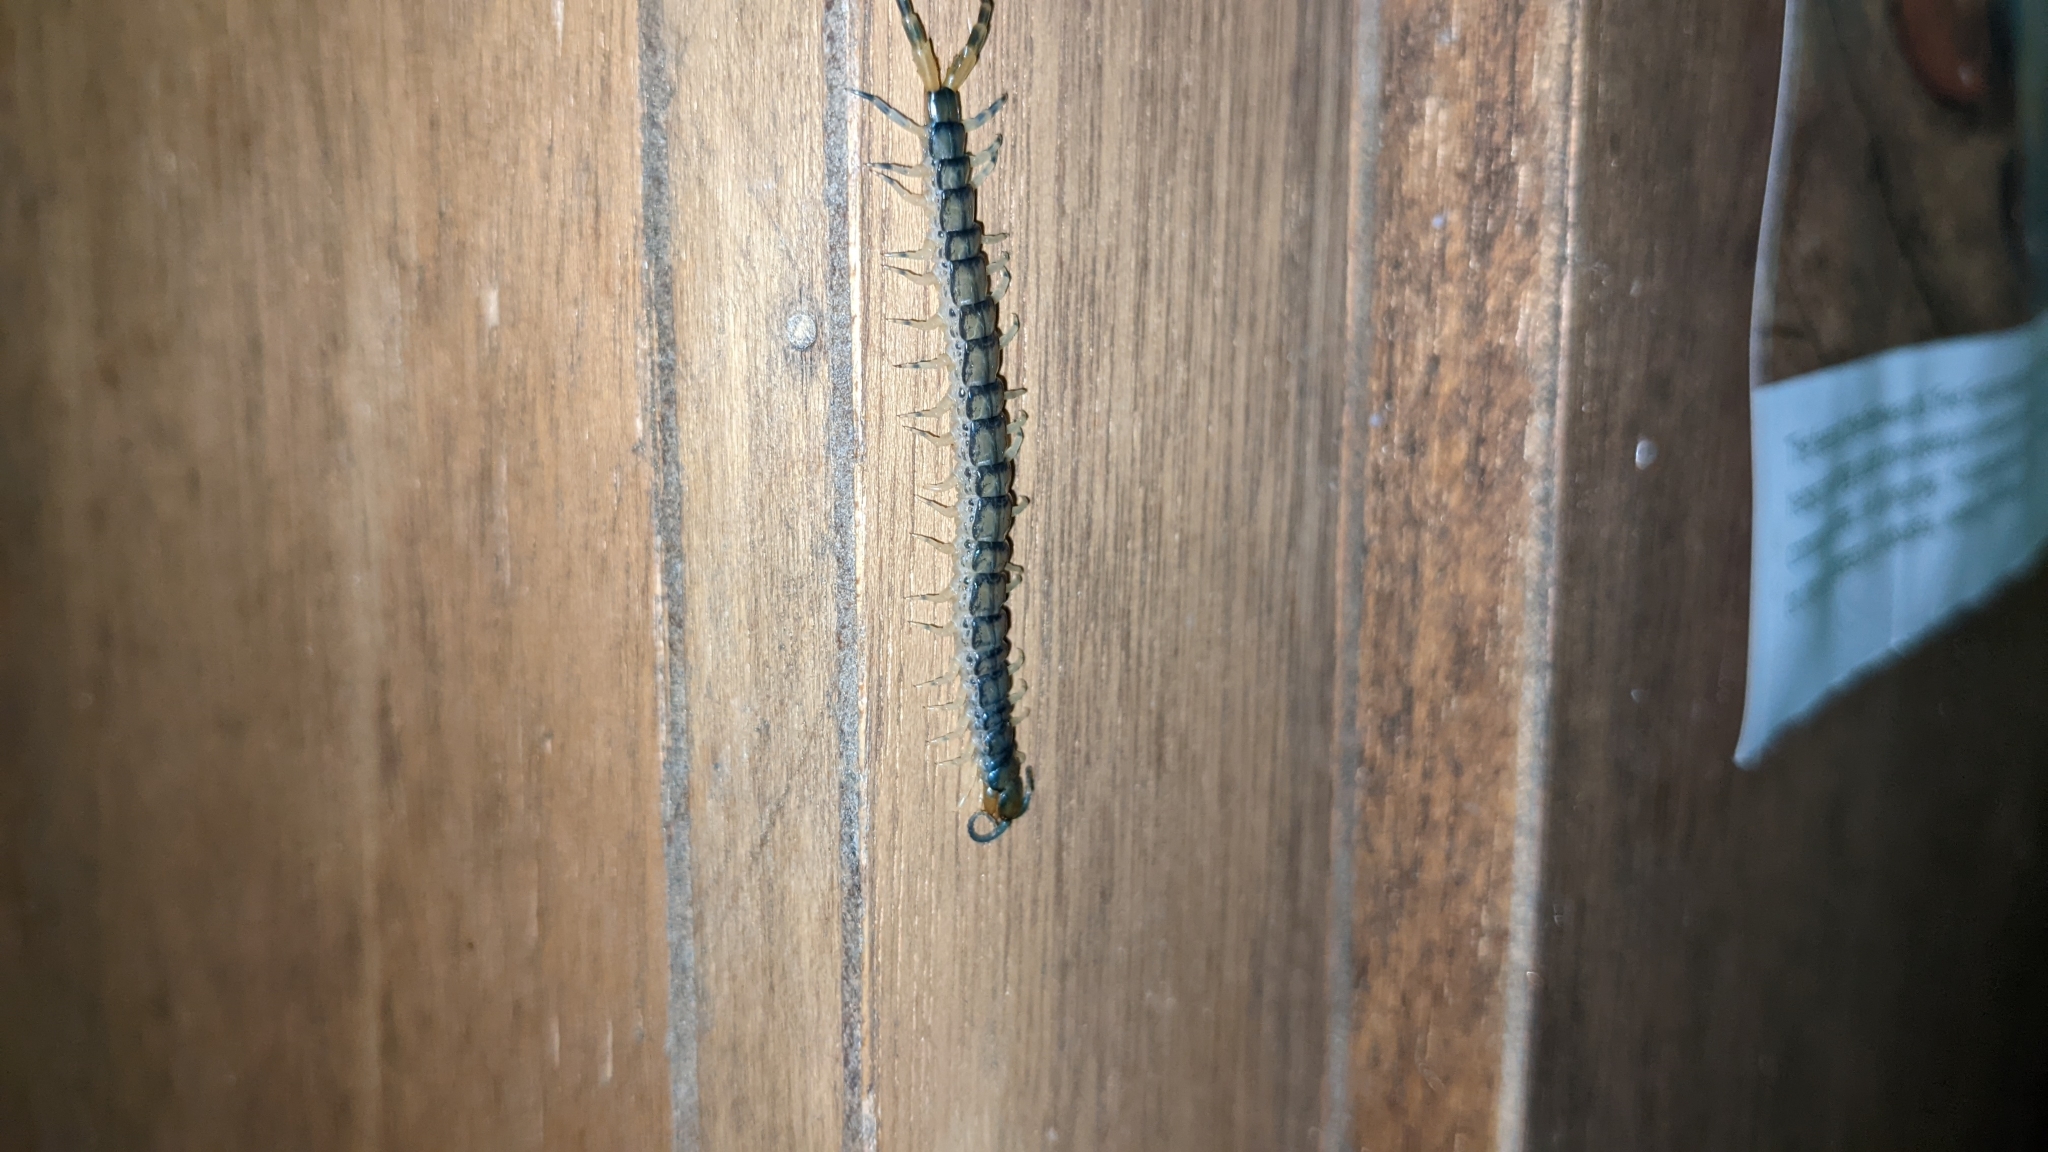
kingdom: Animalia
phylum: Arthropoda
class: Chilopoda
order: Scolopendromorpha
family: Scolopendridae
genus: Hemiscolopendra
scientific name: Hemiscolopendra marginata
